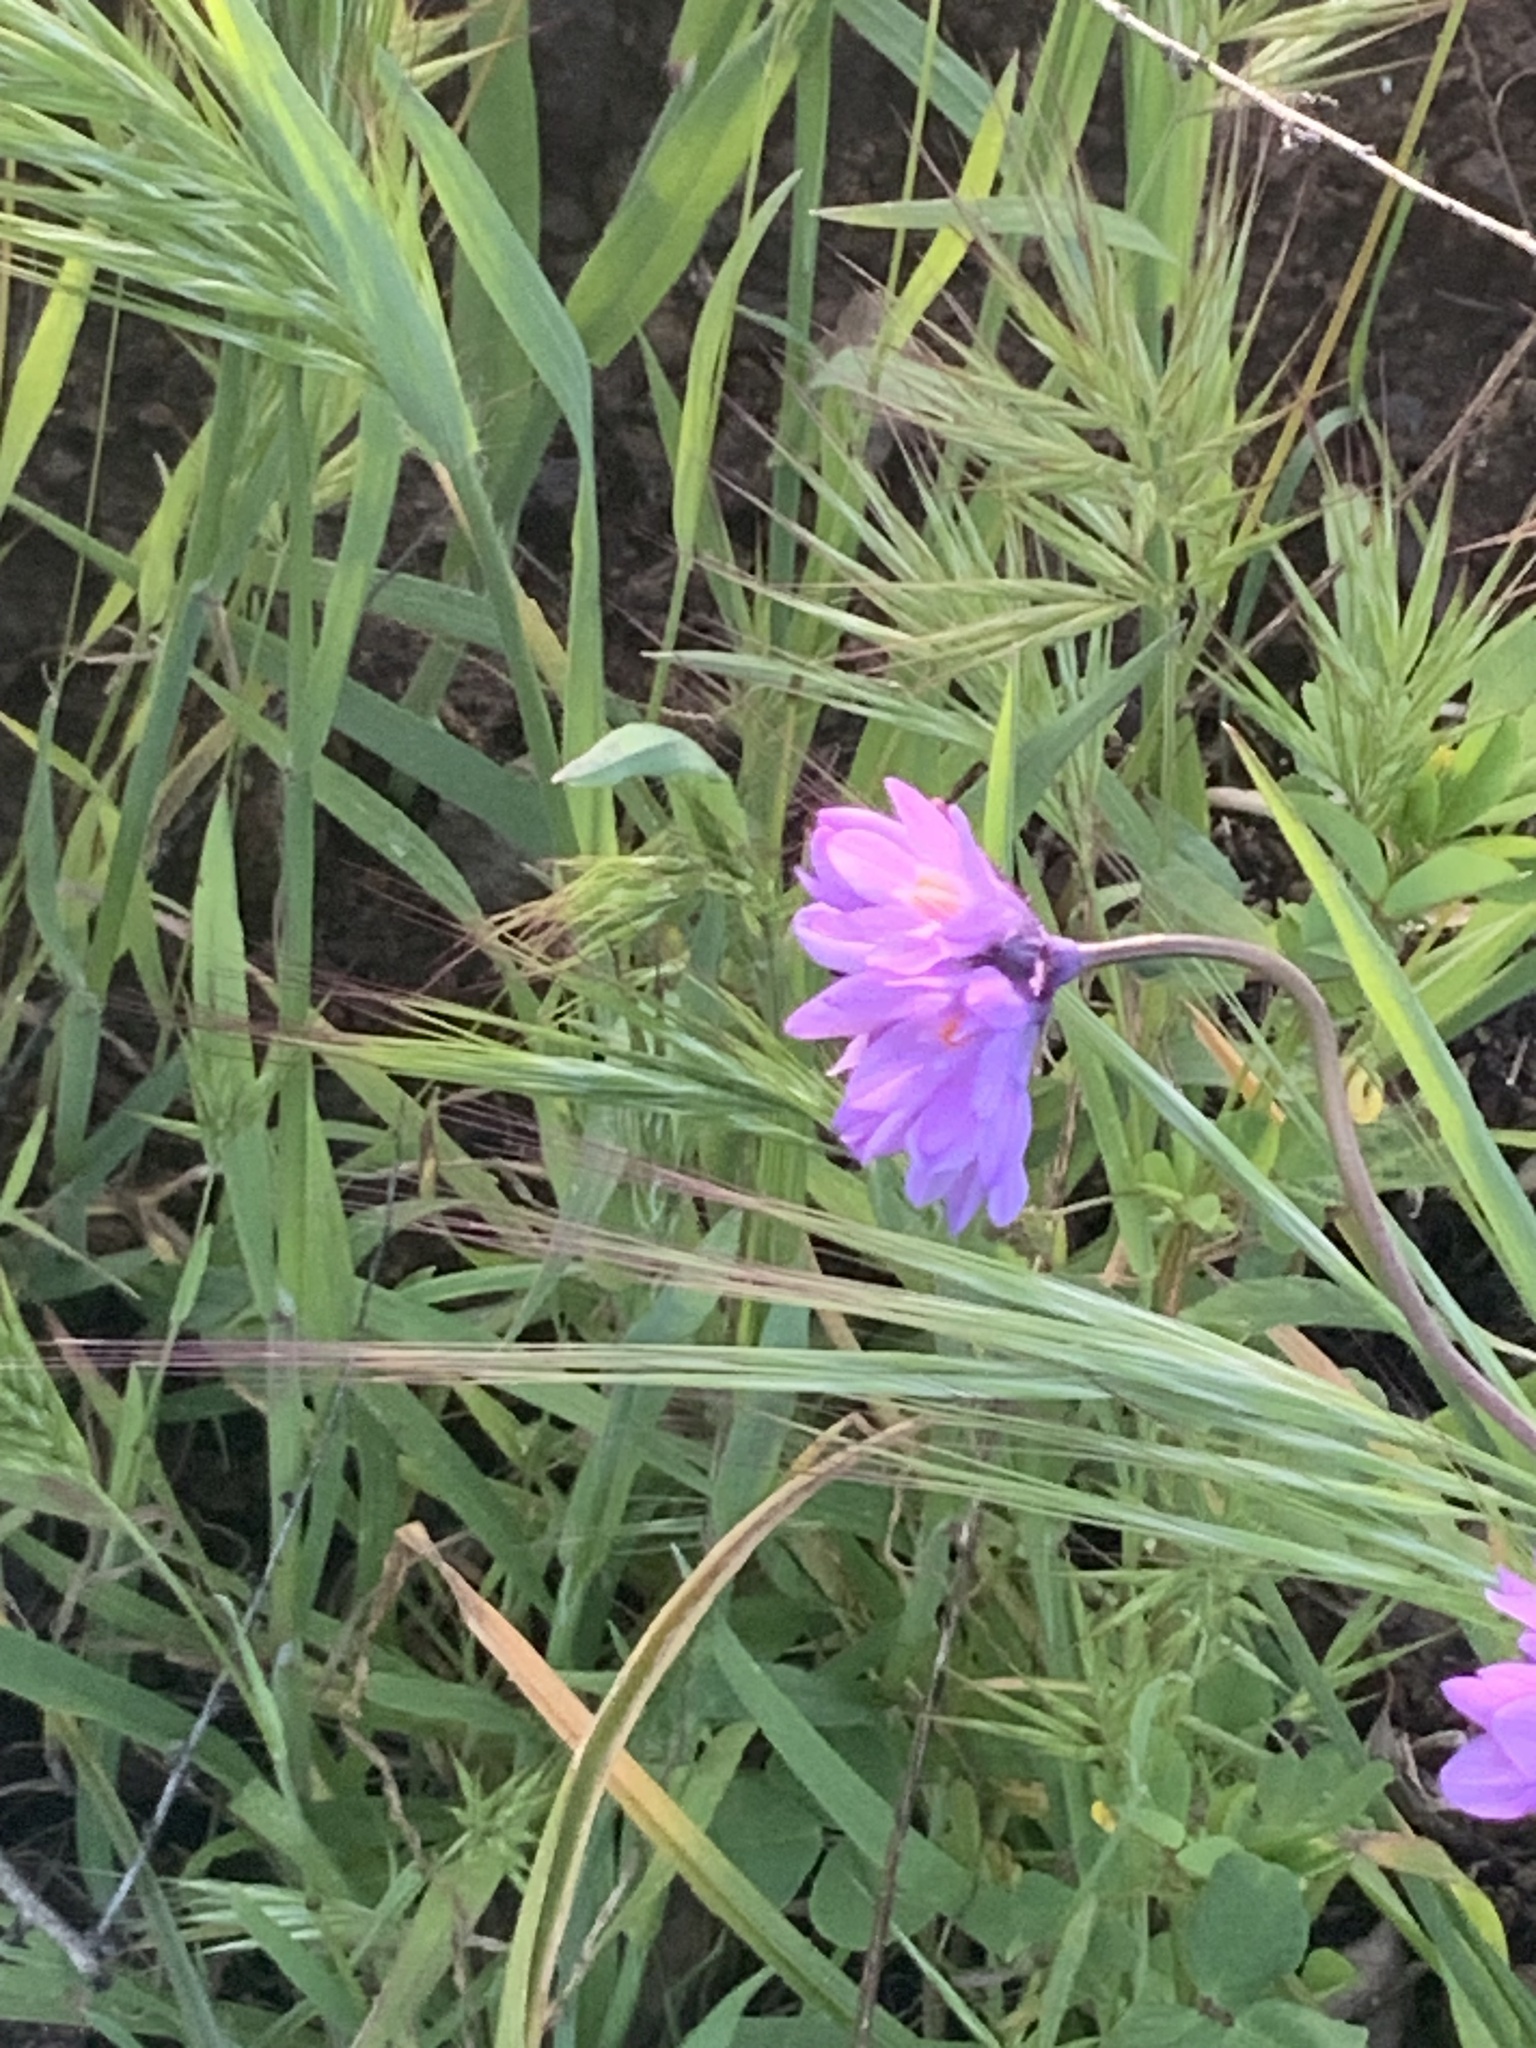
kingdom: Plantae
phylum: Tracheophyta
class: Liliopsida
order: Asparagales
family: Asparagaceae
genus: Dipterostemon
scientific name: Dipterostemon capitatus
